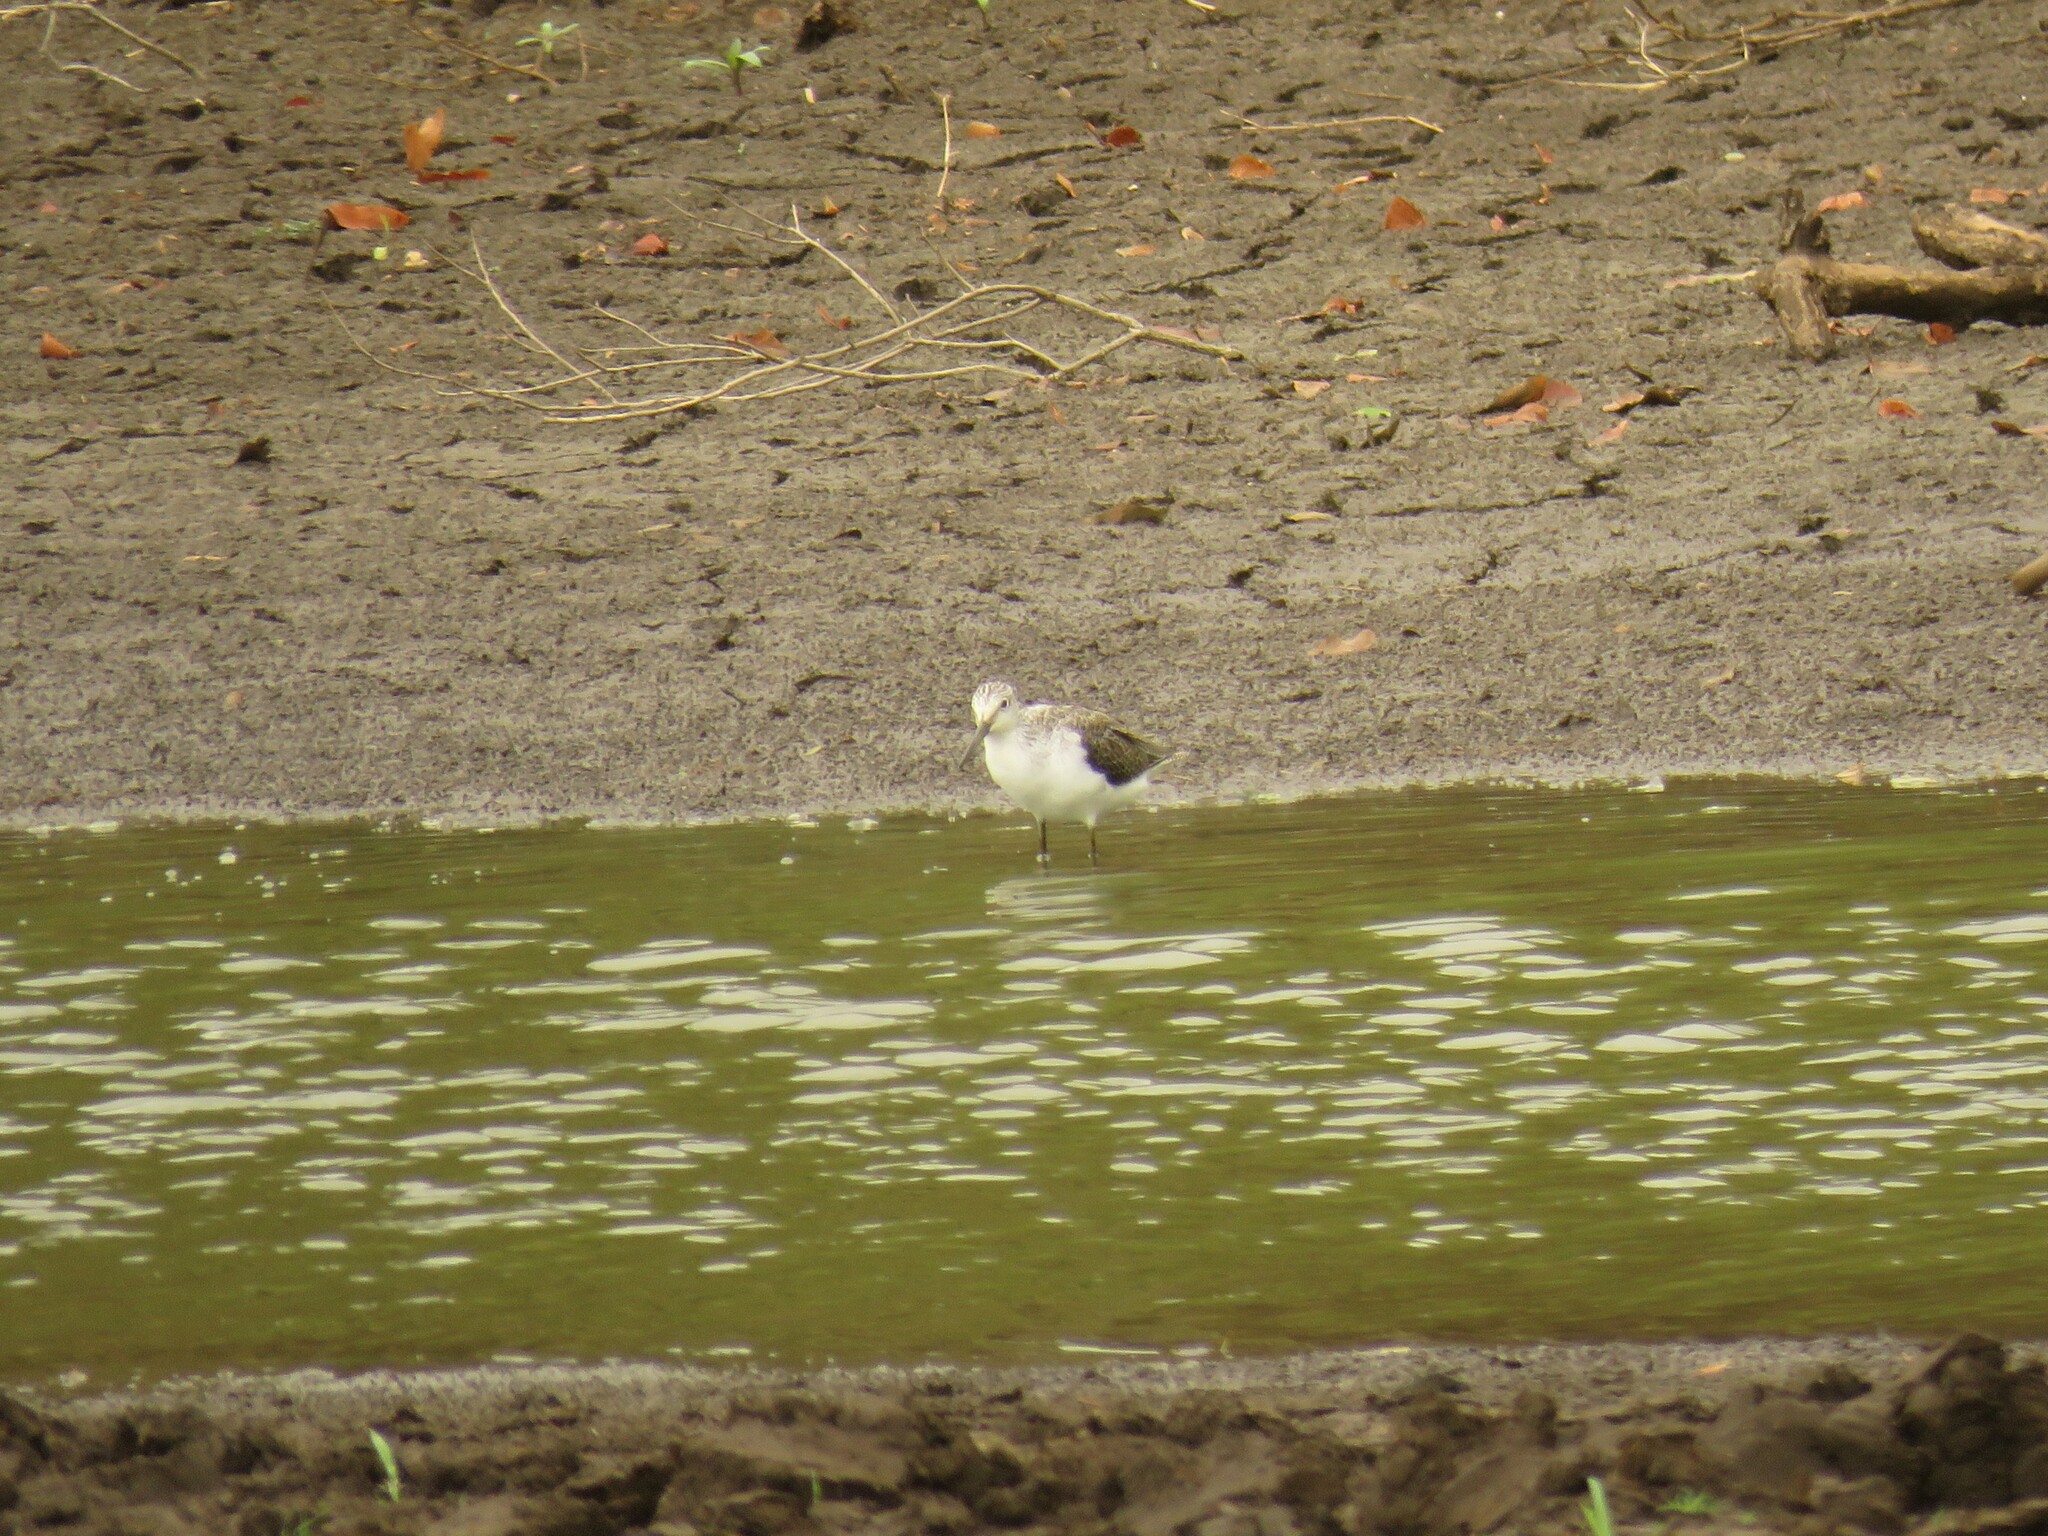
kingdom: Animalia
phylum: Chordata
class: Aves
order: Charadriiformes
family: Scolopacidae
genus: Tringa
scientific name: Tringa nebularia
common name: Common greenshank
